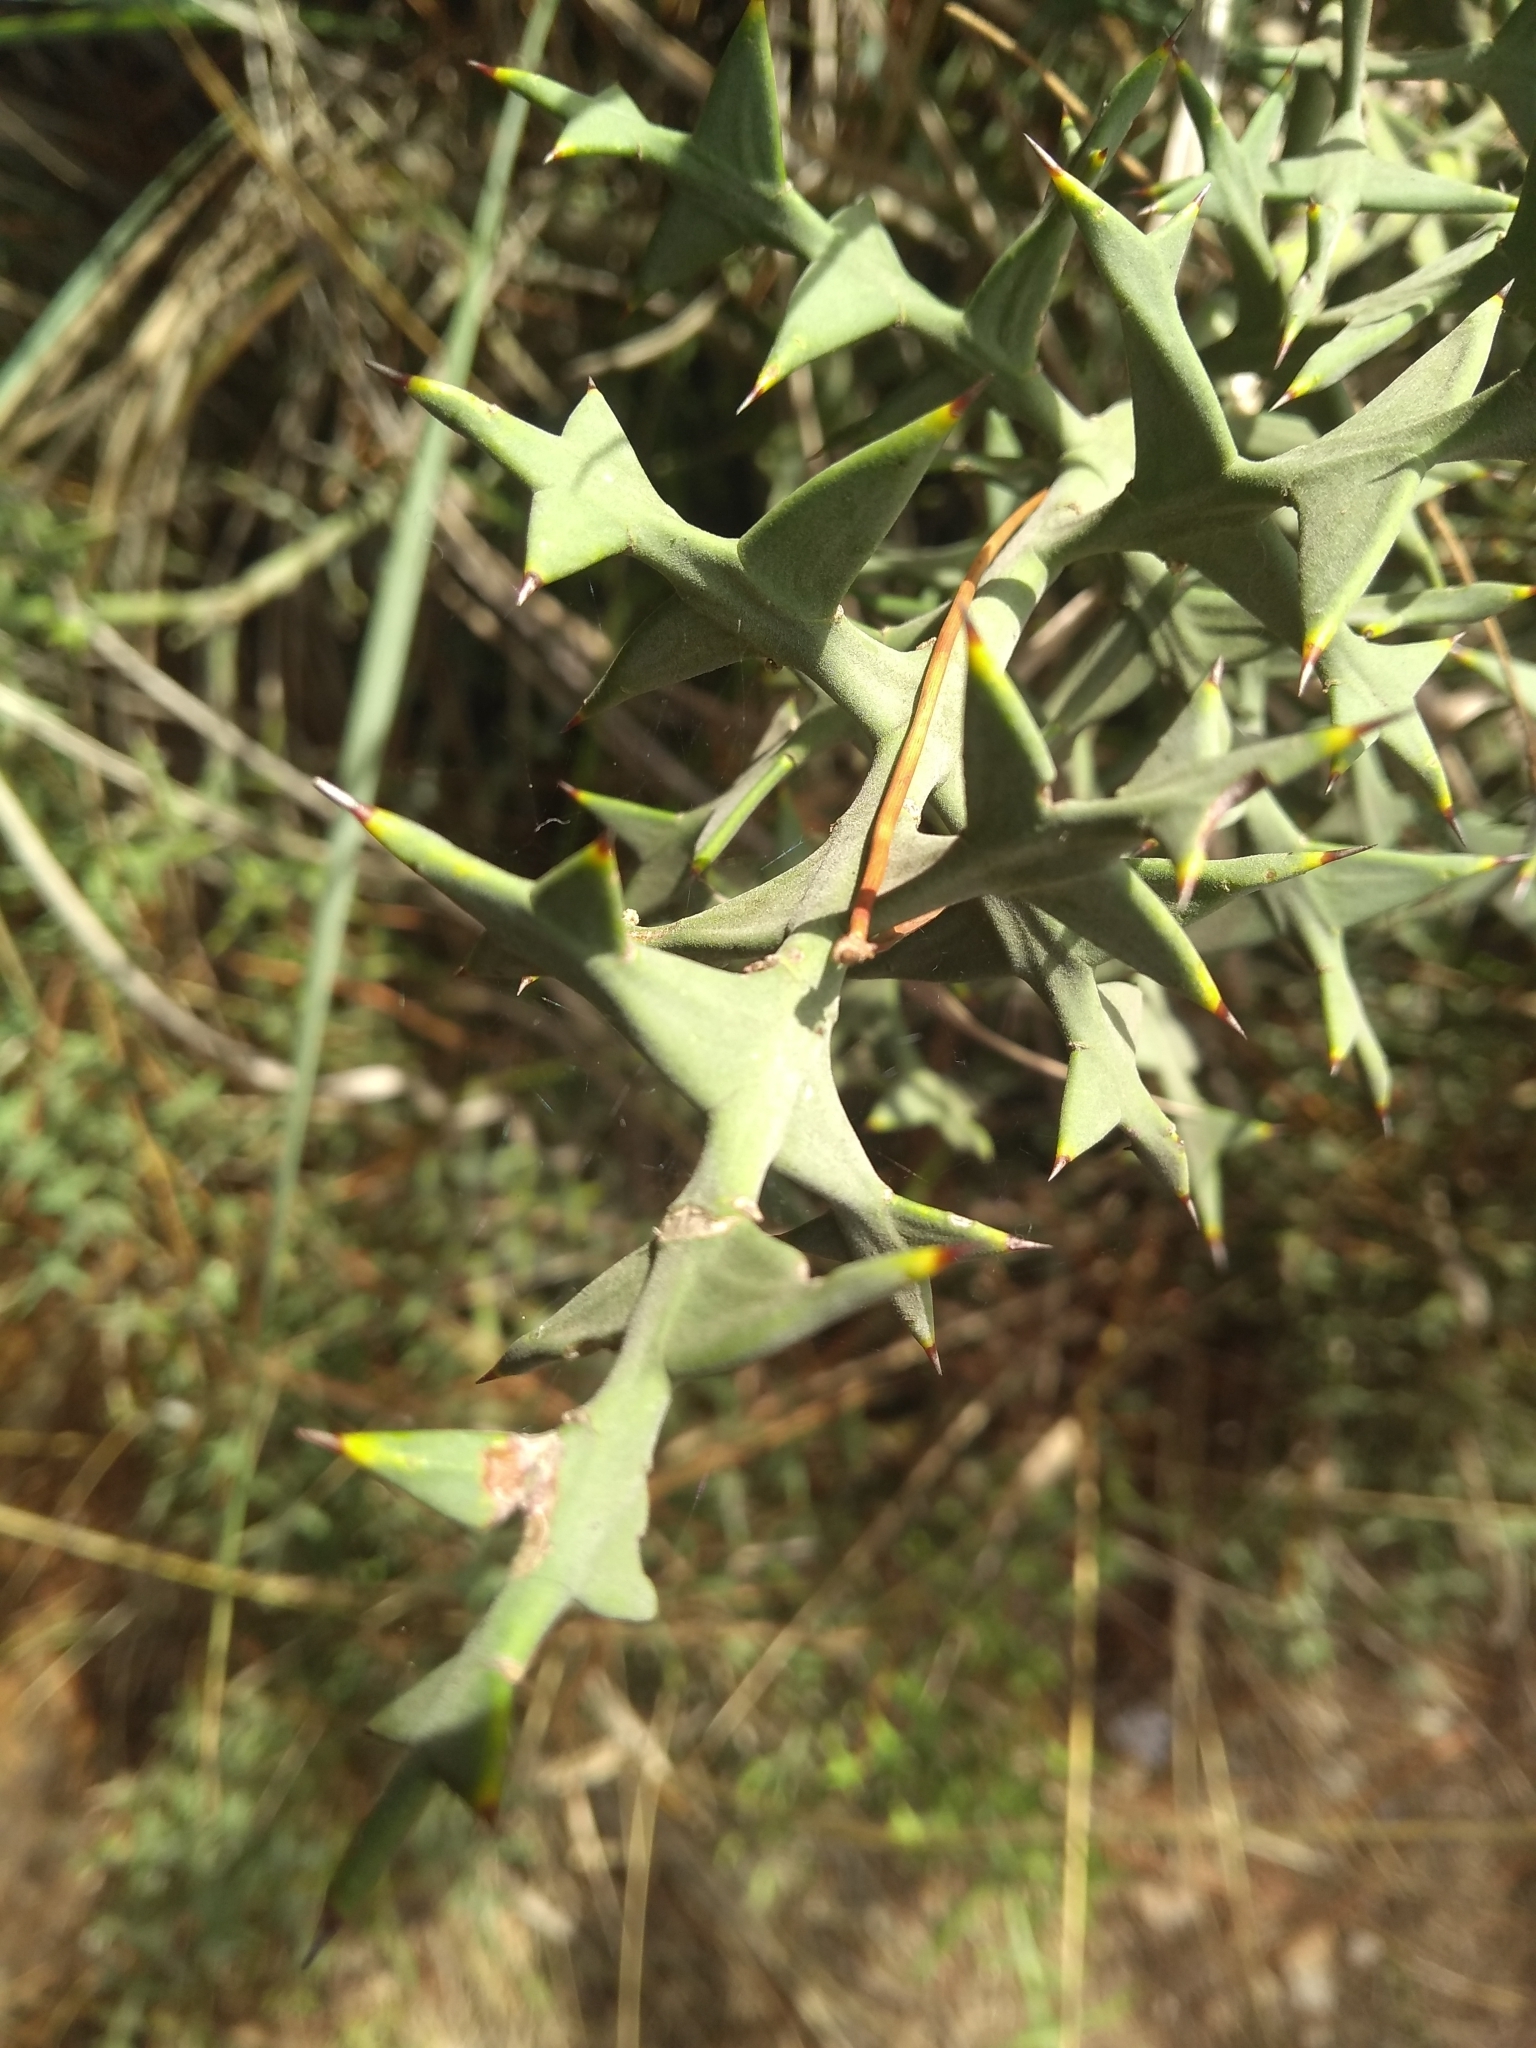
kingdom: Plantae
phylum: Tracheophyta
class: Magnoliopsida
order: Rosales
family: Rhamnaceae
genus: Colletia
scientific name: Colletia paradoxa
